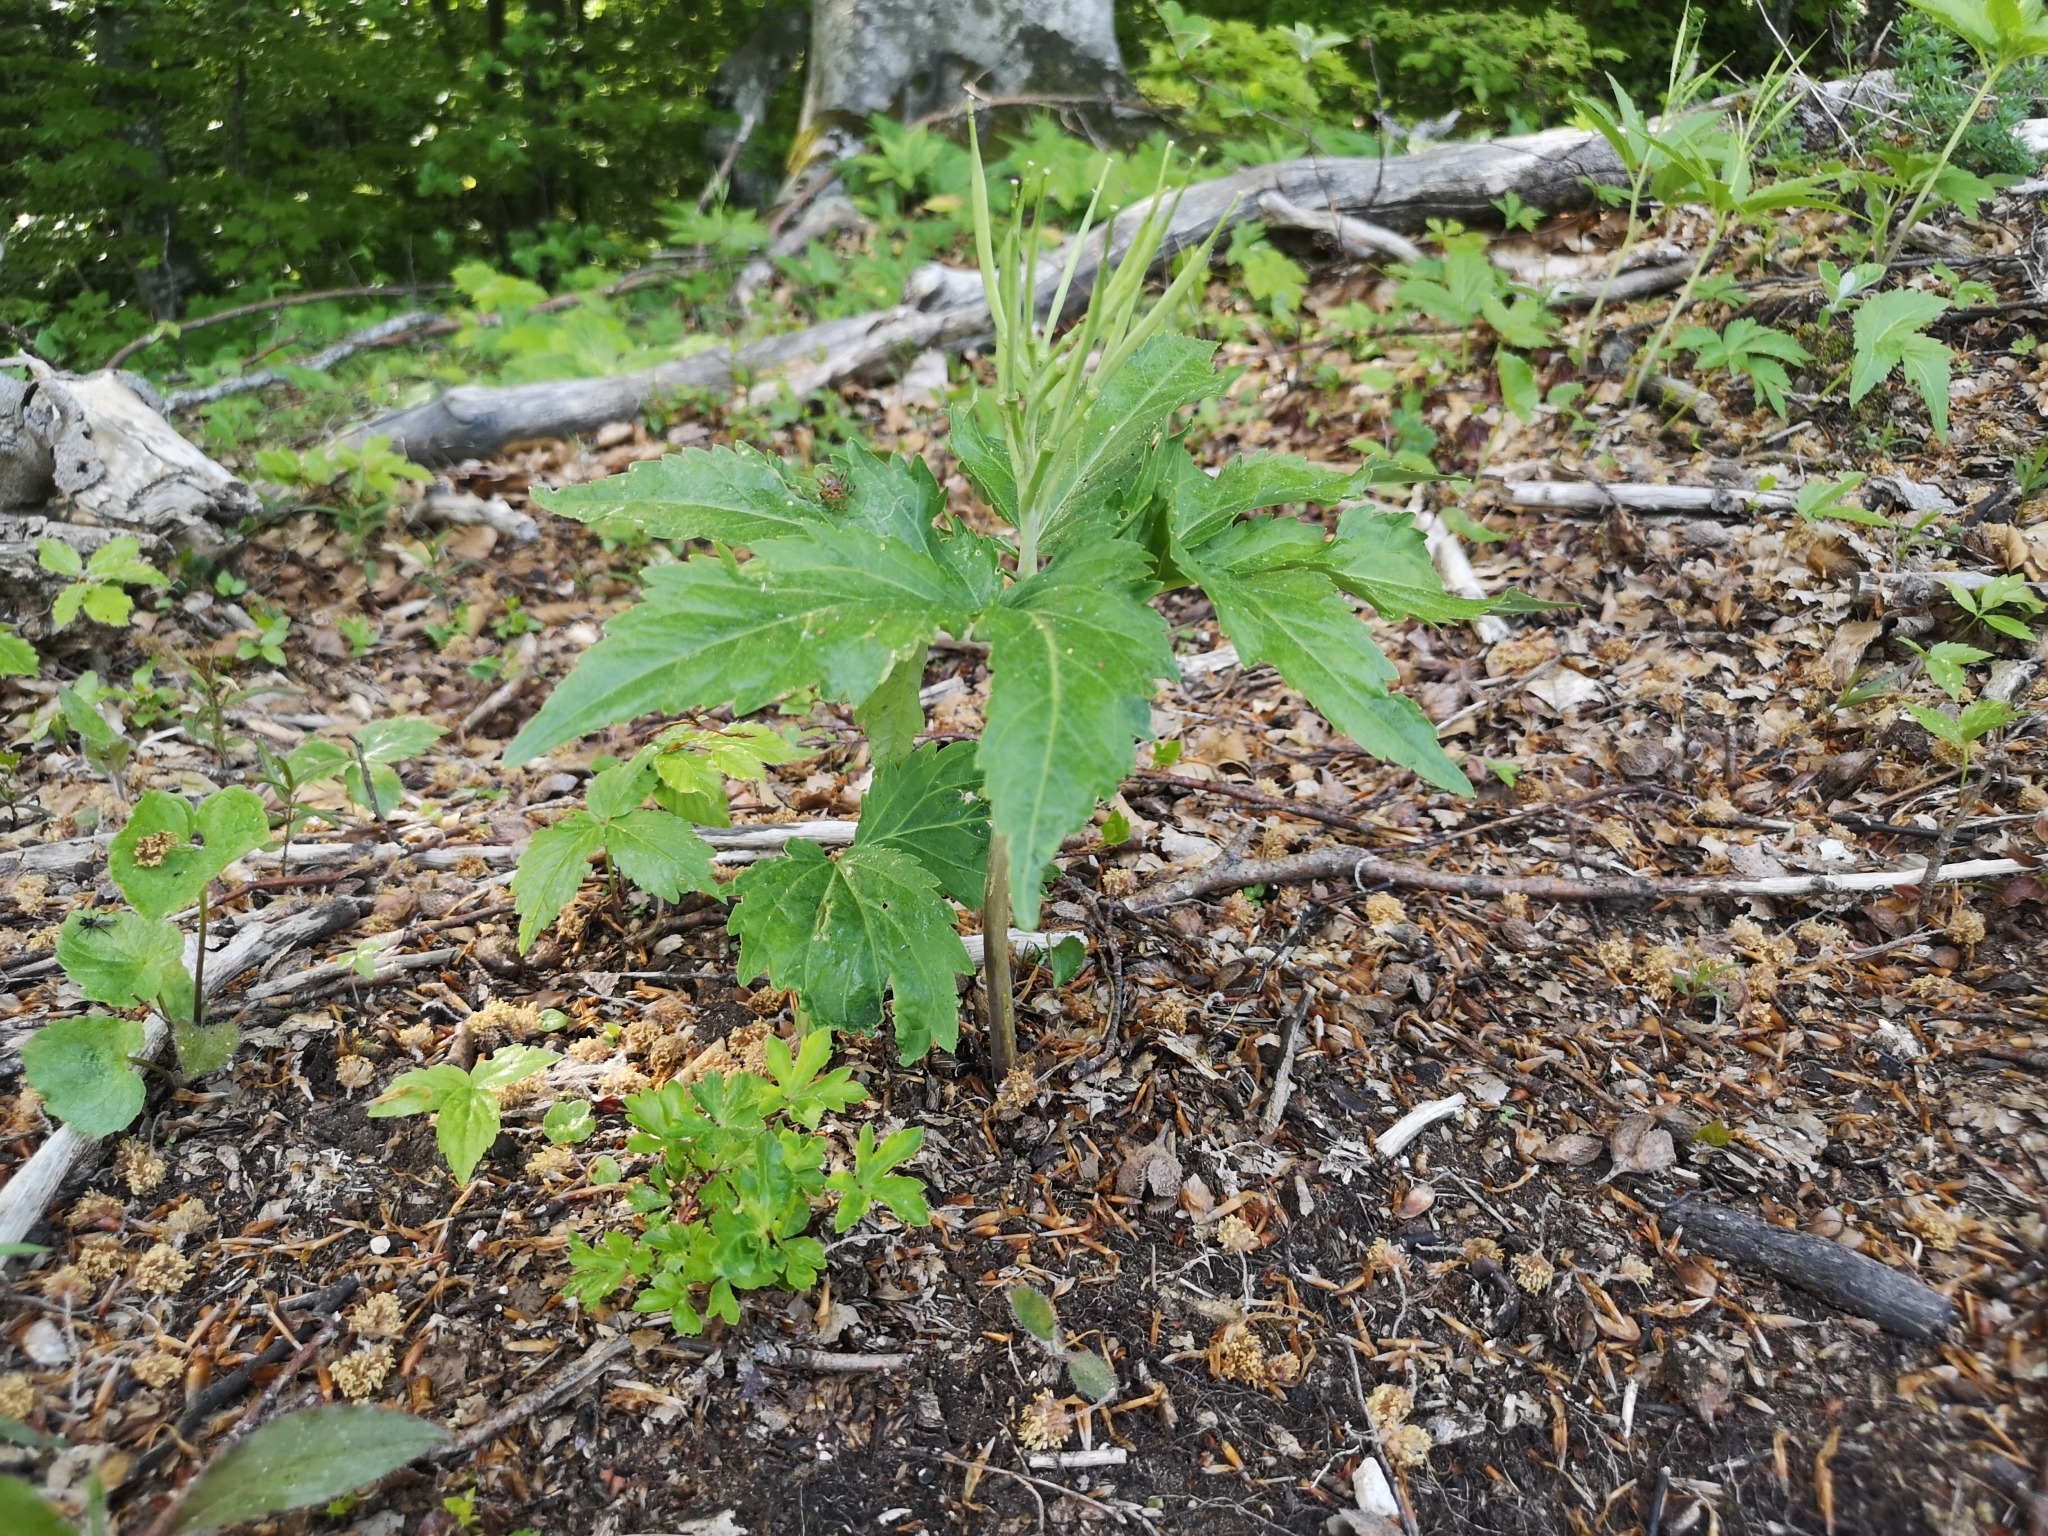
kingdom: Plantae
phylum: Tracheophyta
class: Magnoliopsida
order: Brassicales
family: Brassicaceae
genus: Cardamine
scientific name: Cardamine enneaphyllos
